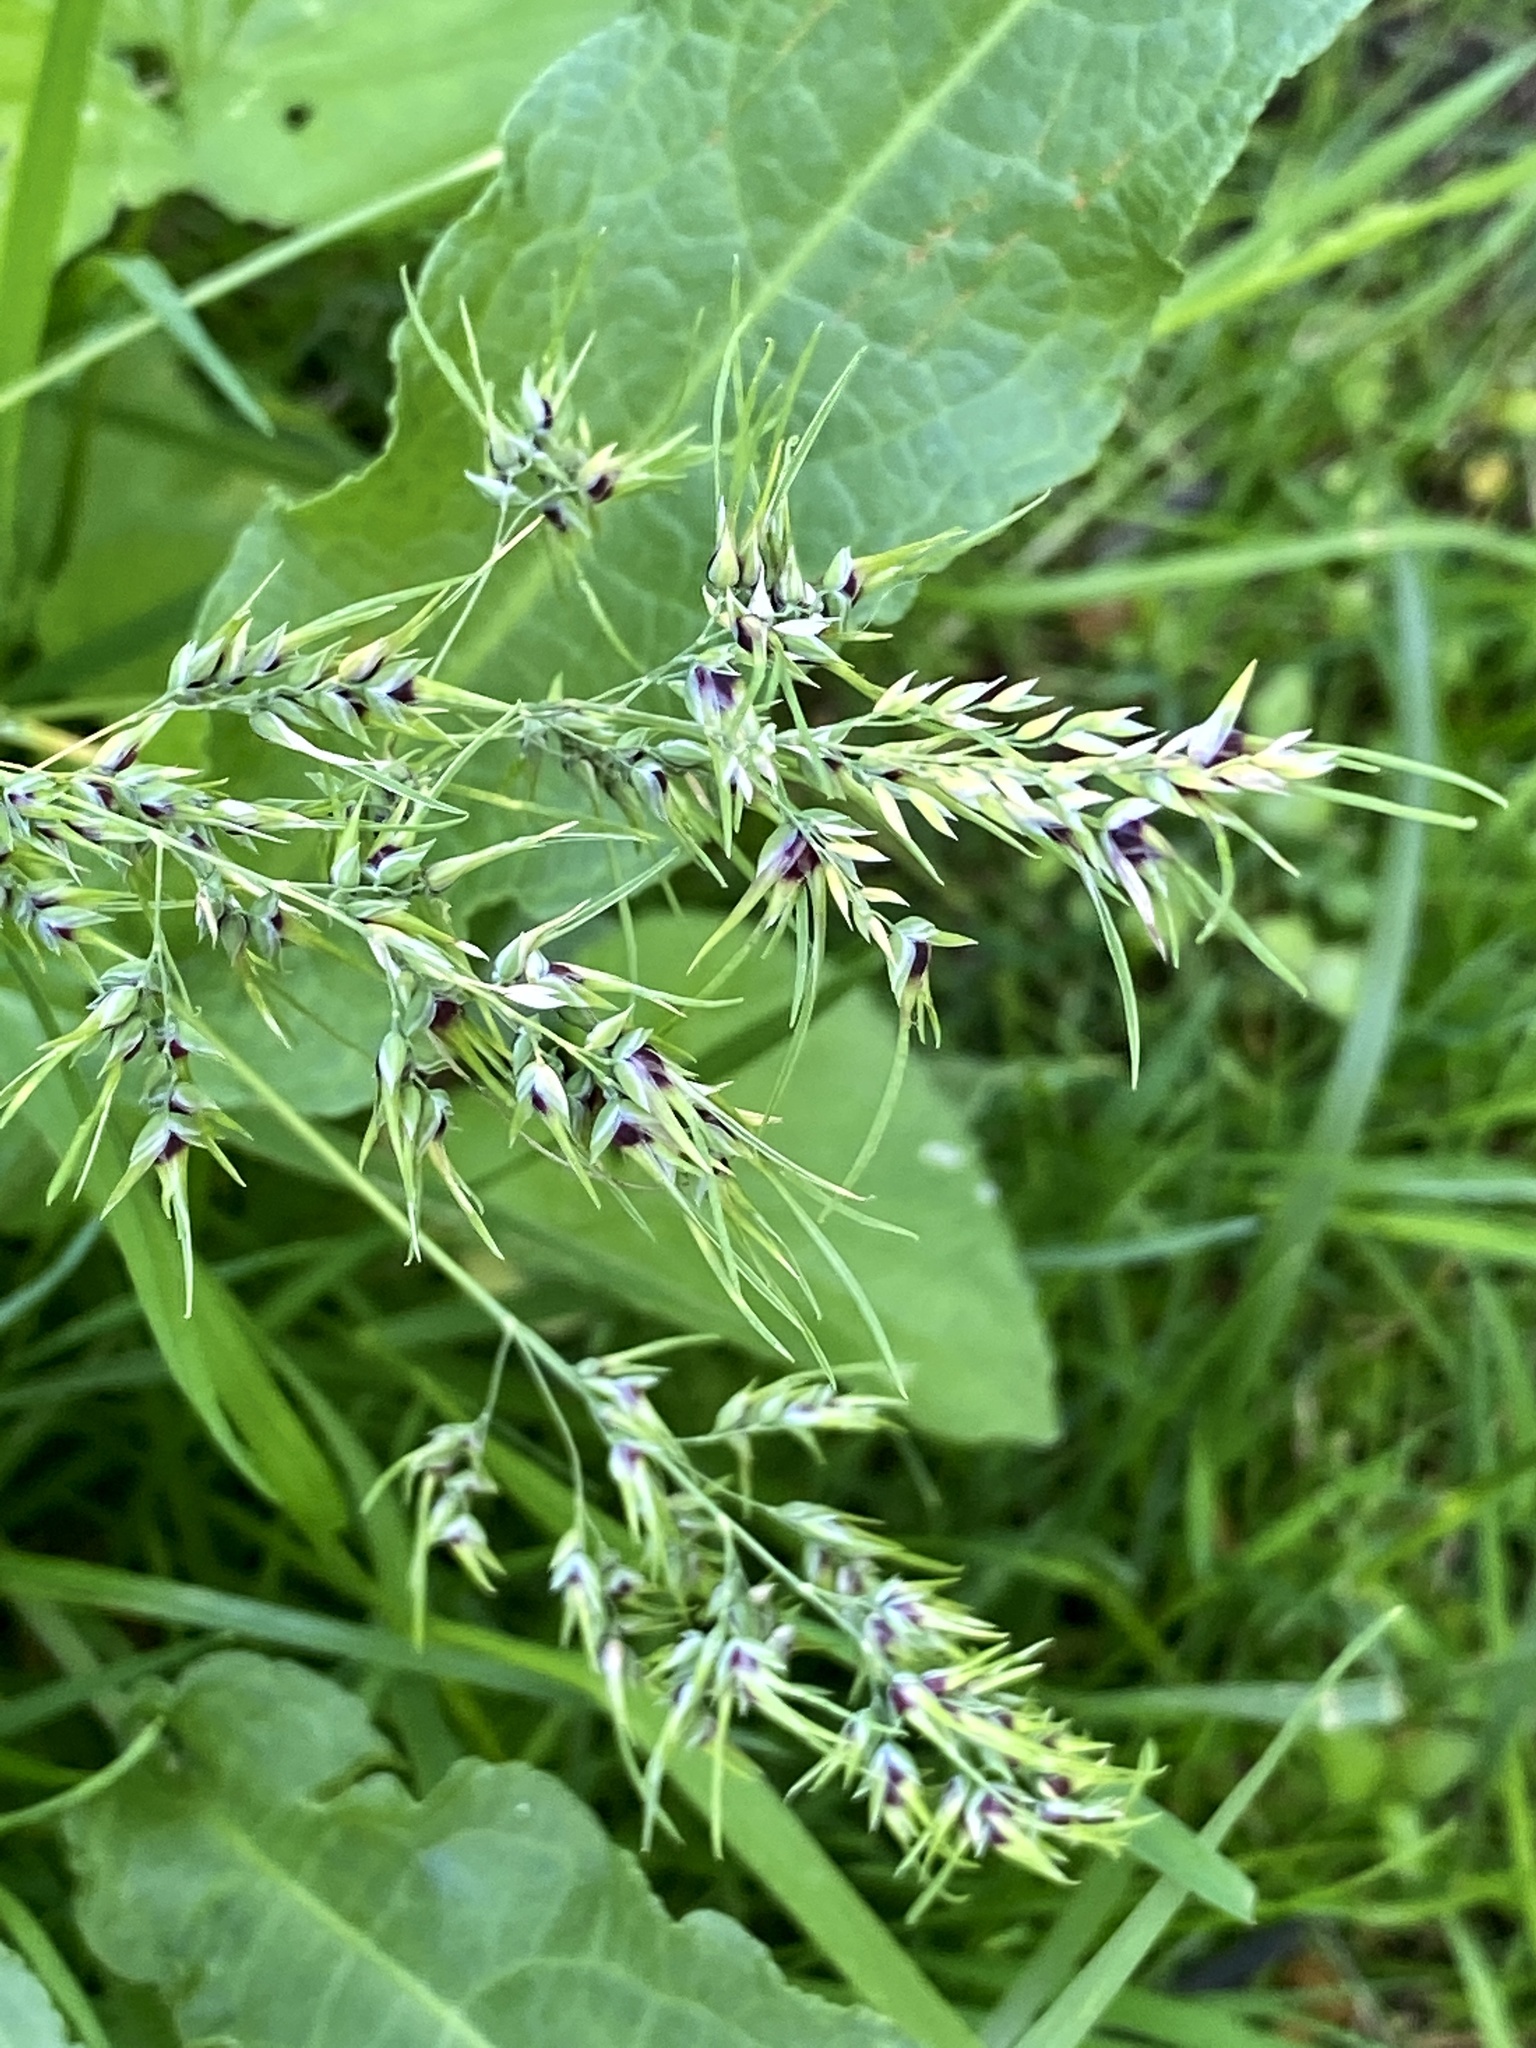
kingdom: Plantae
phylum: Tracheophyta
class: Liliopsida
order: Poales
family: Poaceae
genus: Poa
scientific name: Poa bulbosa
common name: Bulbous bluegrass
